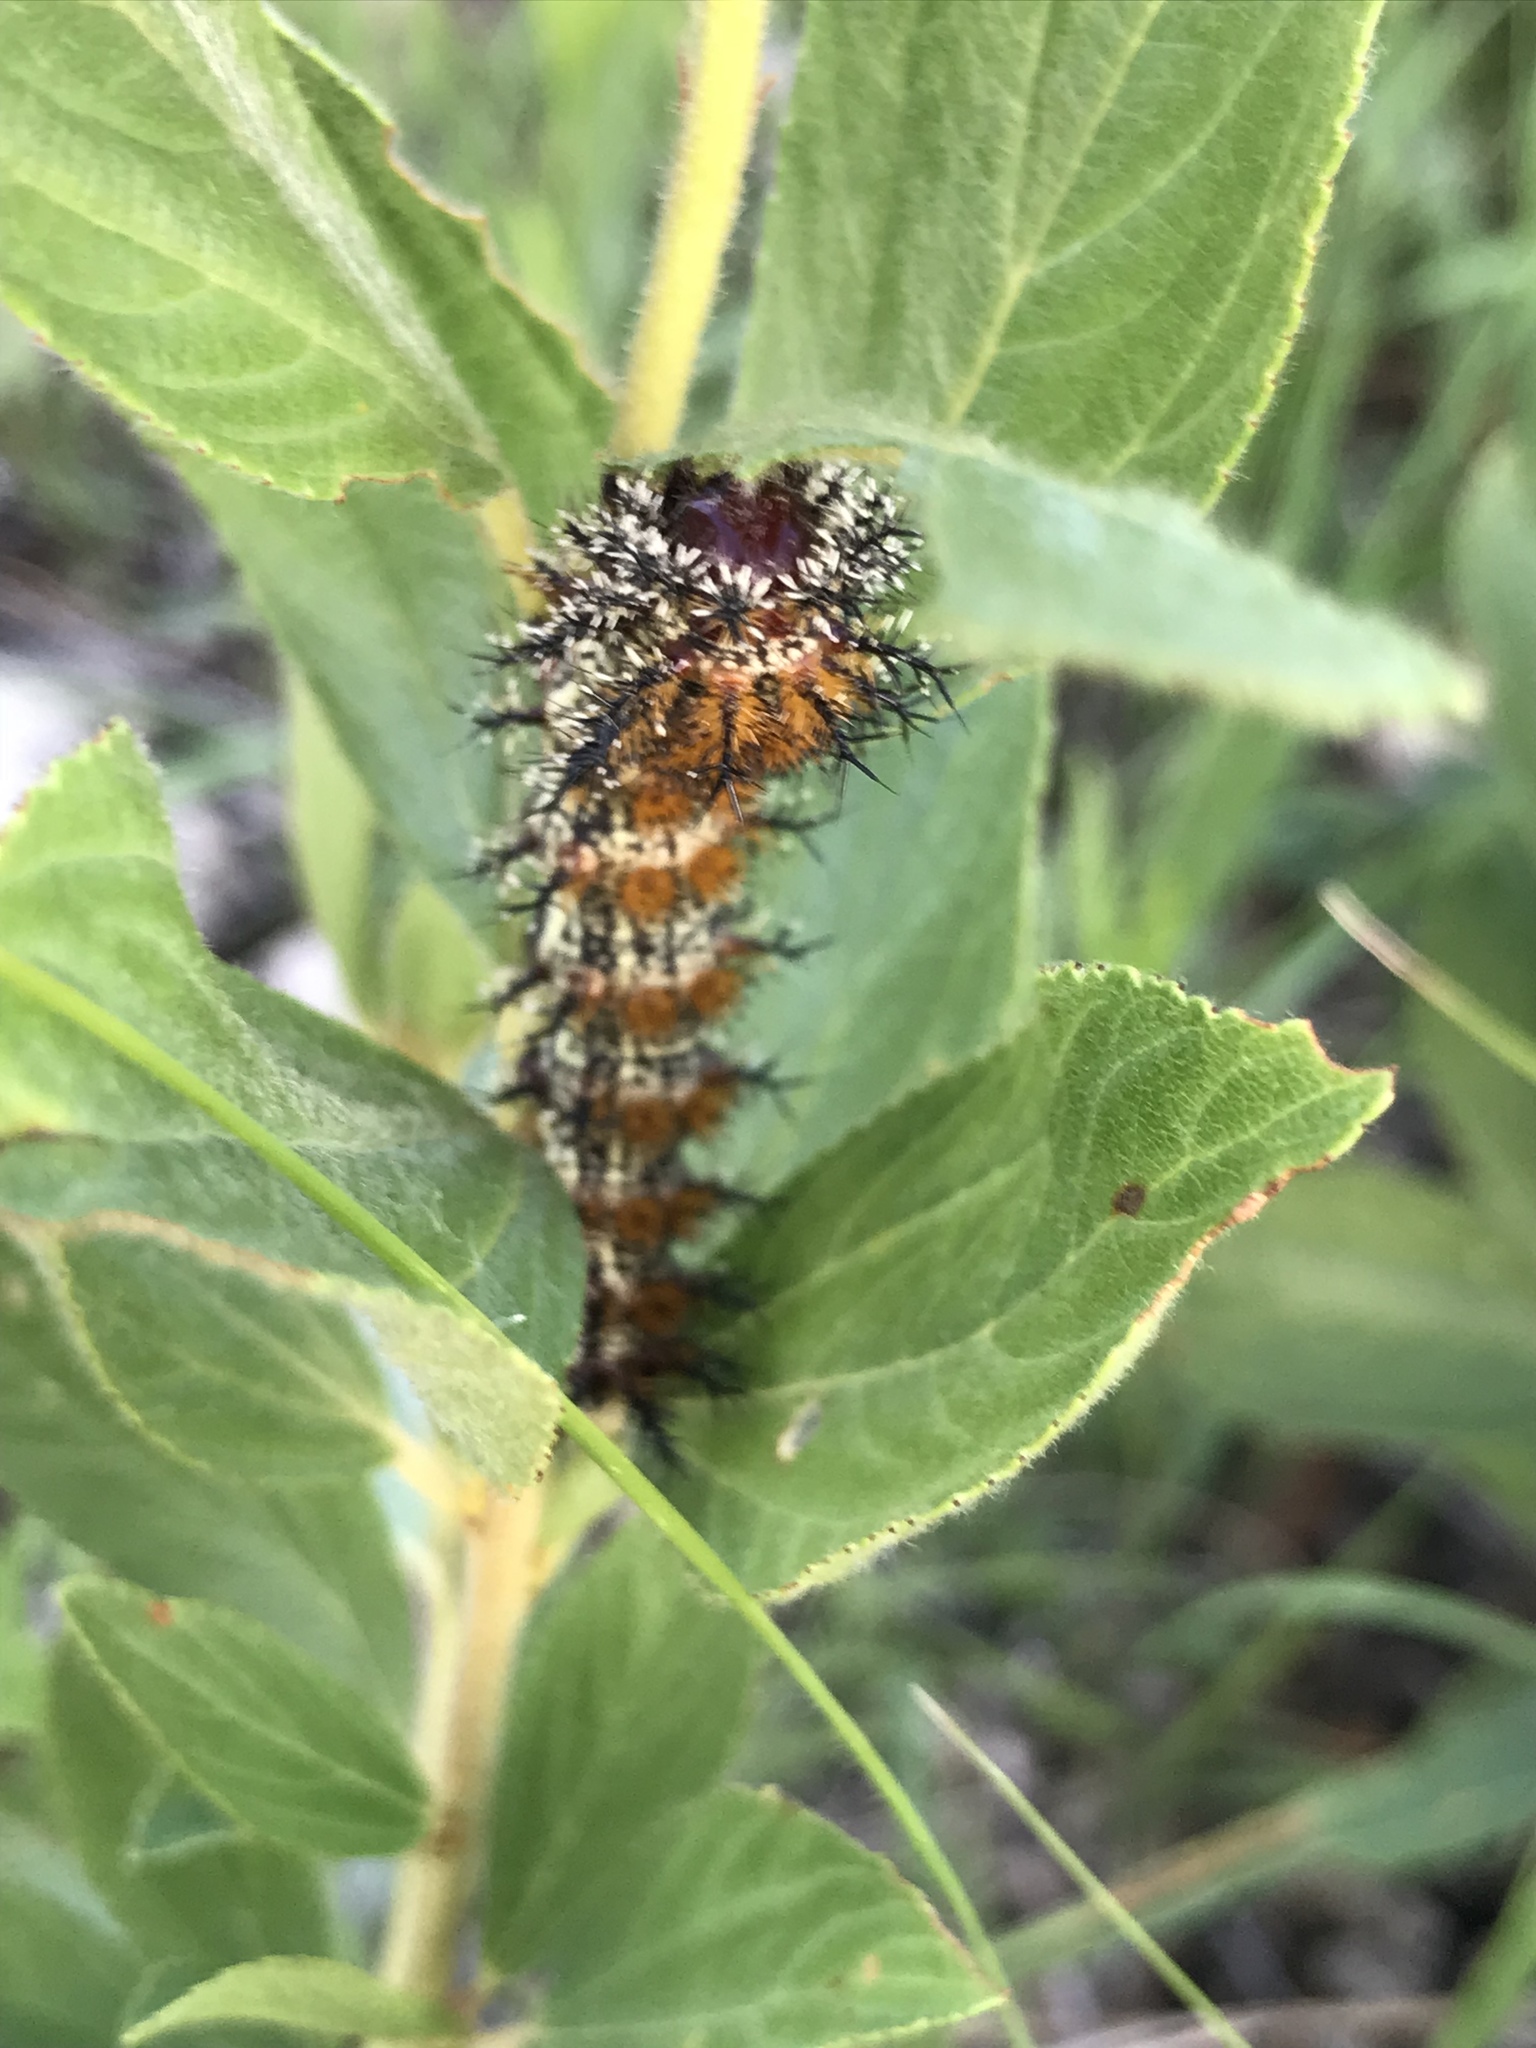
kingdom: Animalia
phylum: Arthropoda
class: Insecta
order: Lepidoptera
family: Saturniidae
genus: Hemileuca
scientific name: Hemileuca nevadensis
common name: Nevada buckmoth
